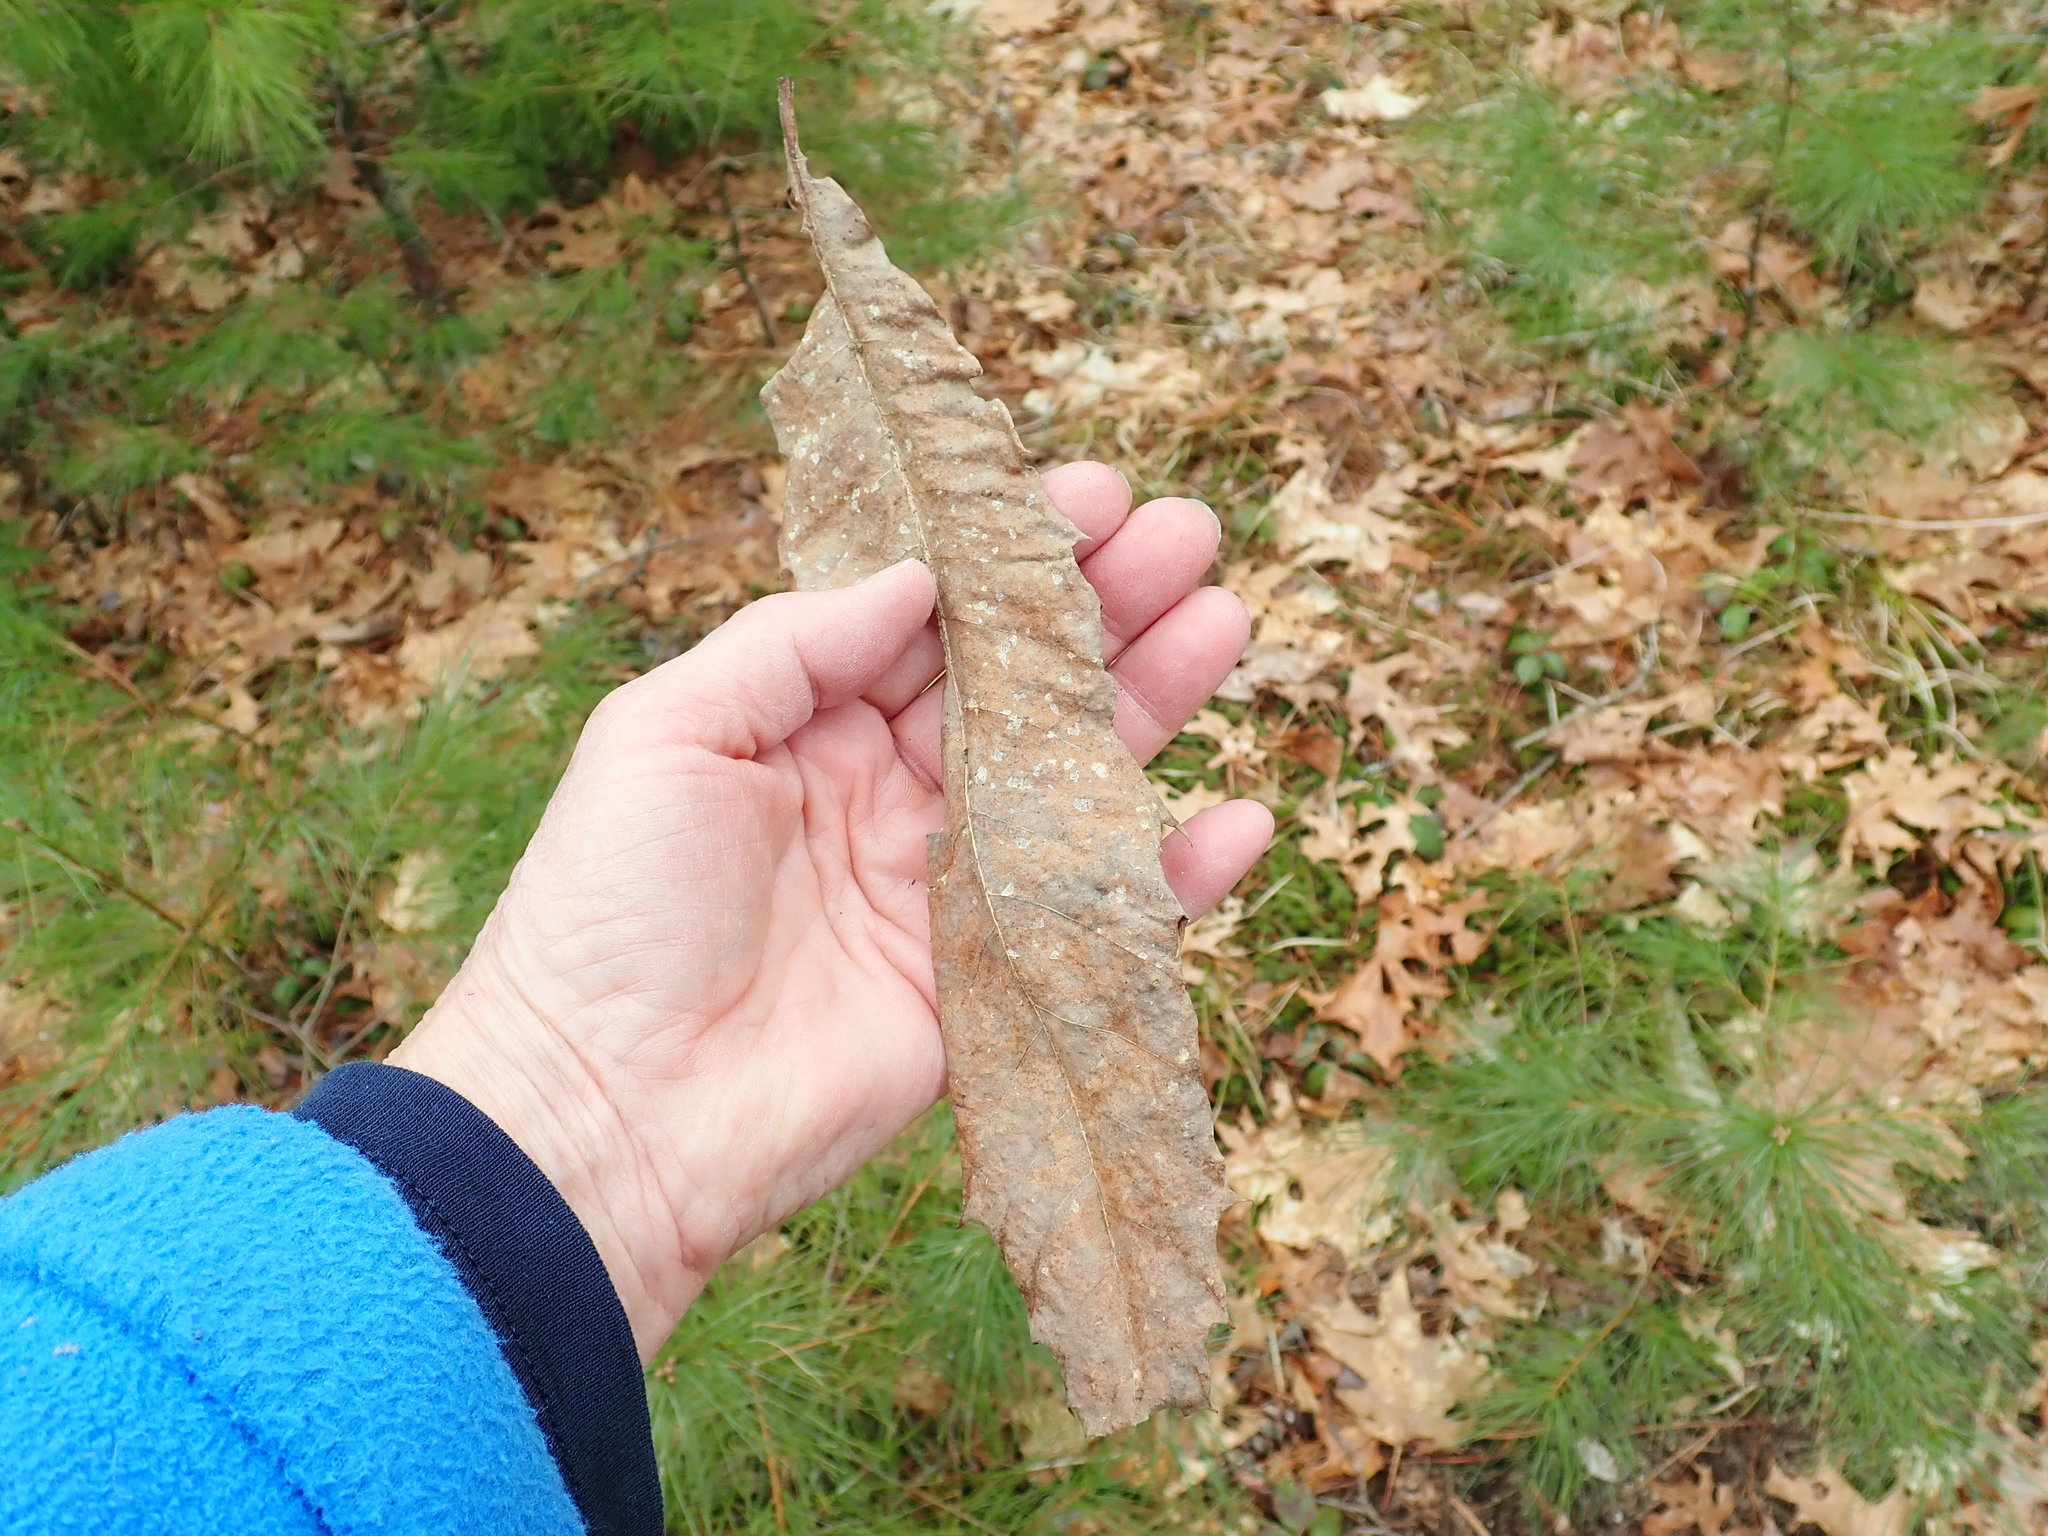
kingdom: Plantae
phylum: Tracheophyta
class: Magnoliopsida
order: Fagales
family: Fagaceae
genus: Castanea
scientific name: Castanea dentata
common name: American chestnut
